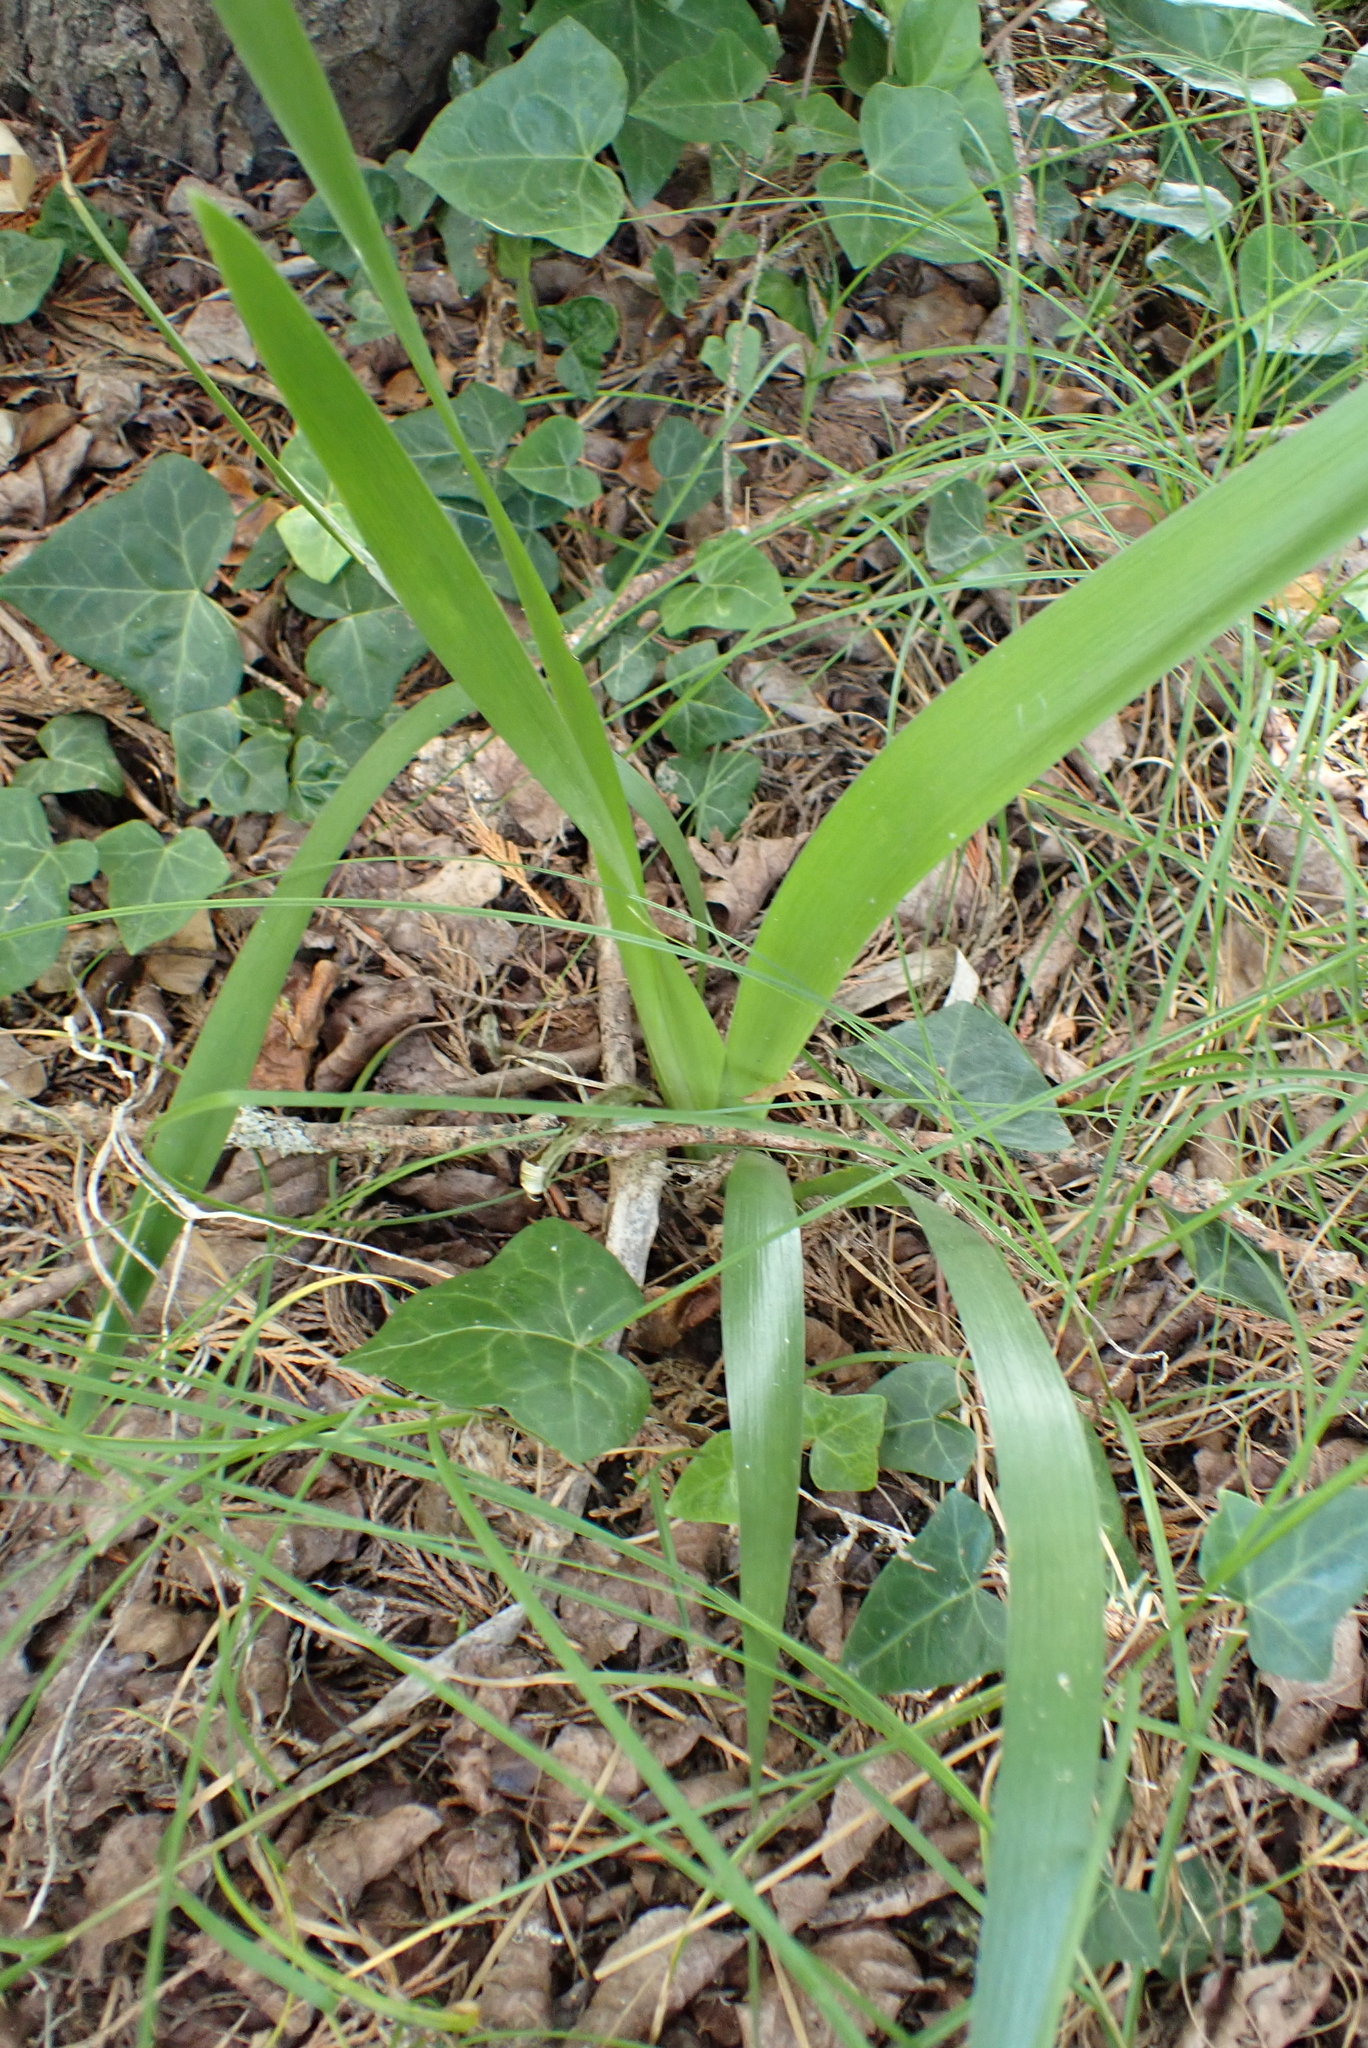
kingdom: Plantae
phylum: Tracheophyta
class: Liliopsida
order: Asparagales
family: Iridaceae
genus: Iris
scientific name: Iris foetidissima
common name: Stinking iris
